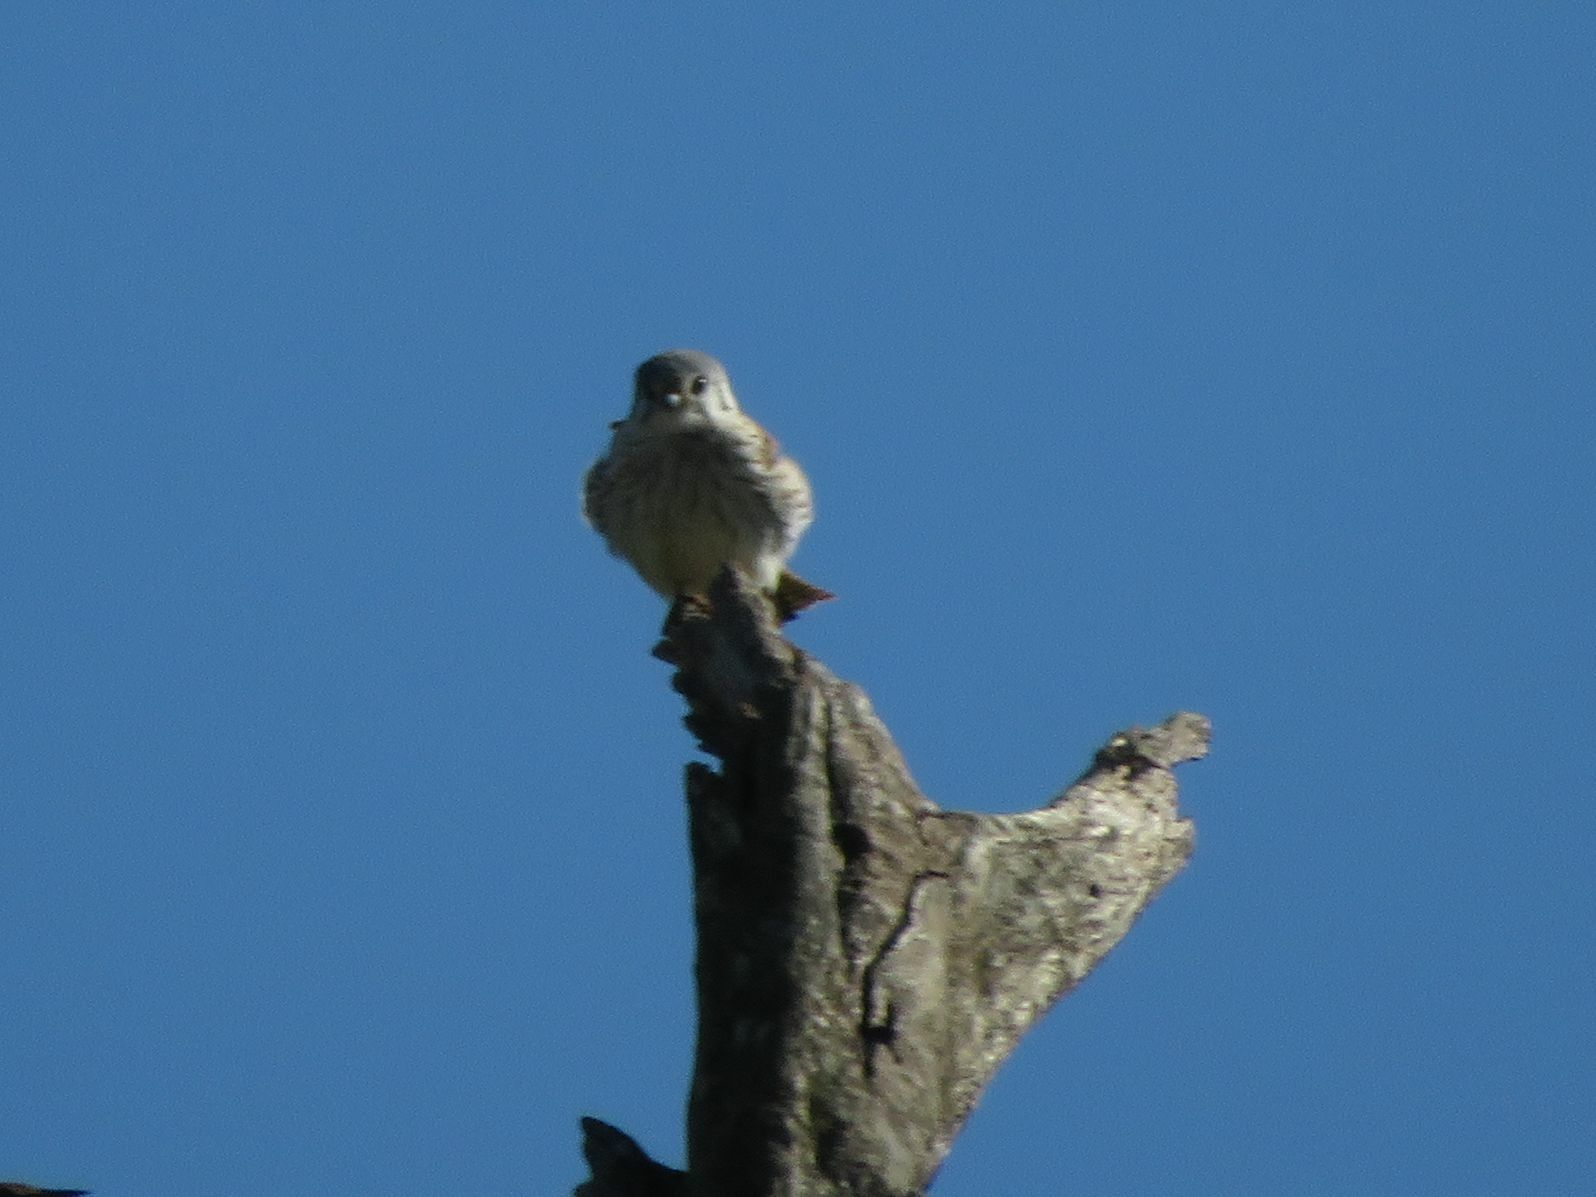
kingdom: Animalia
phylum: Chordata
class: Aves
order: Falconiformes
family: Falconidae
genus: Falco
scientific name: Falco sparverius
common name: American kestrel
